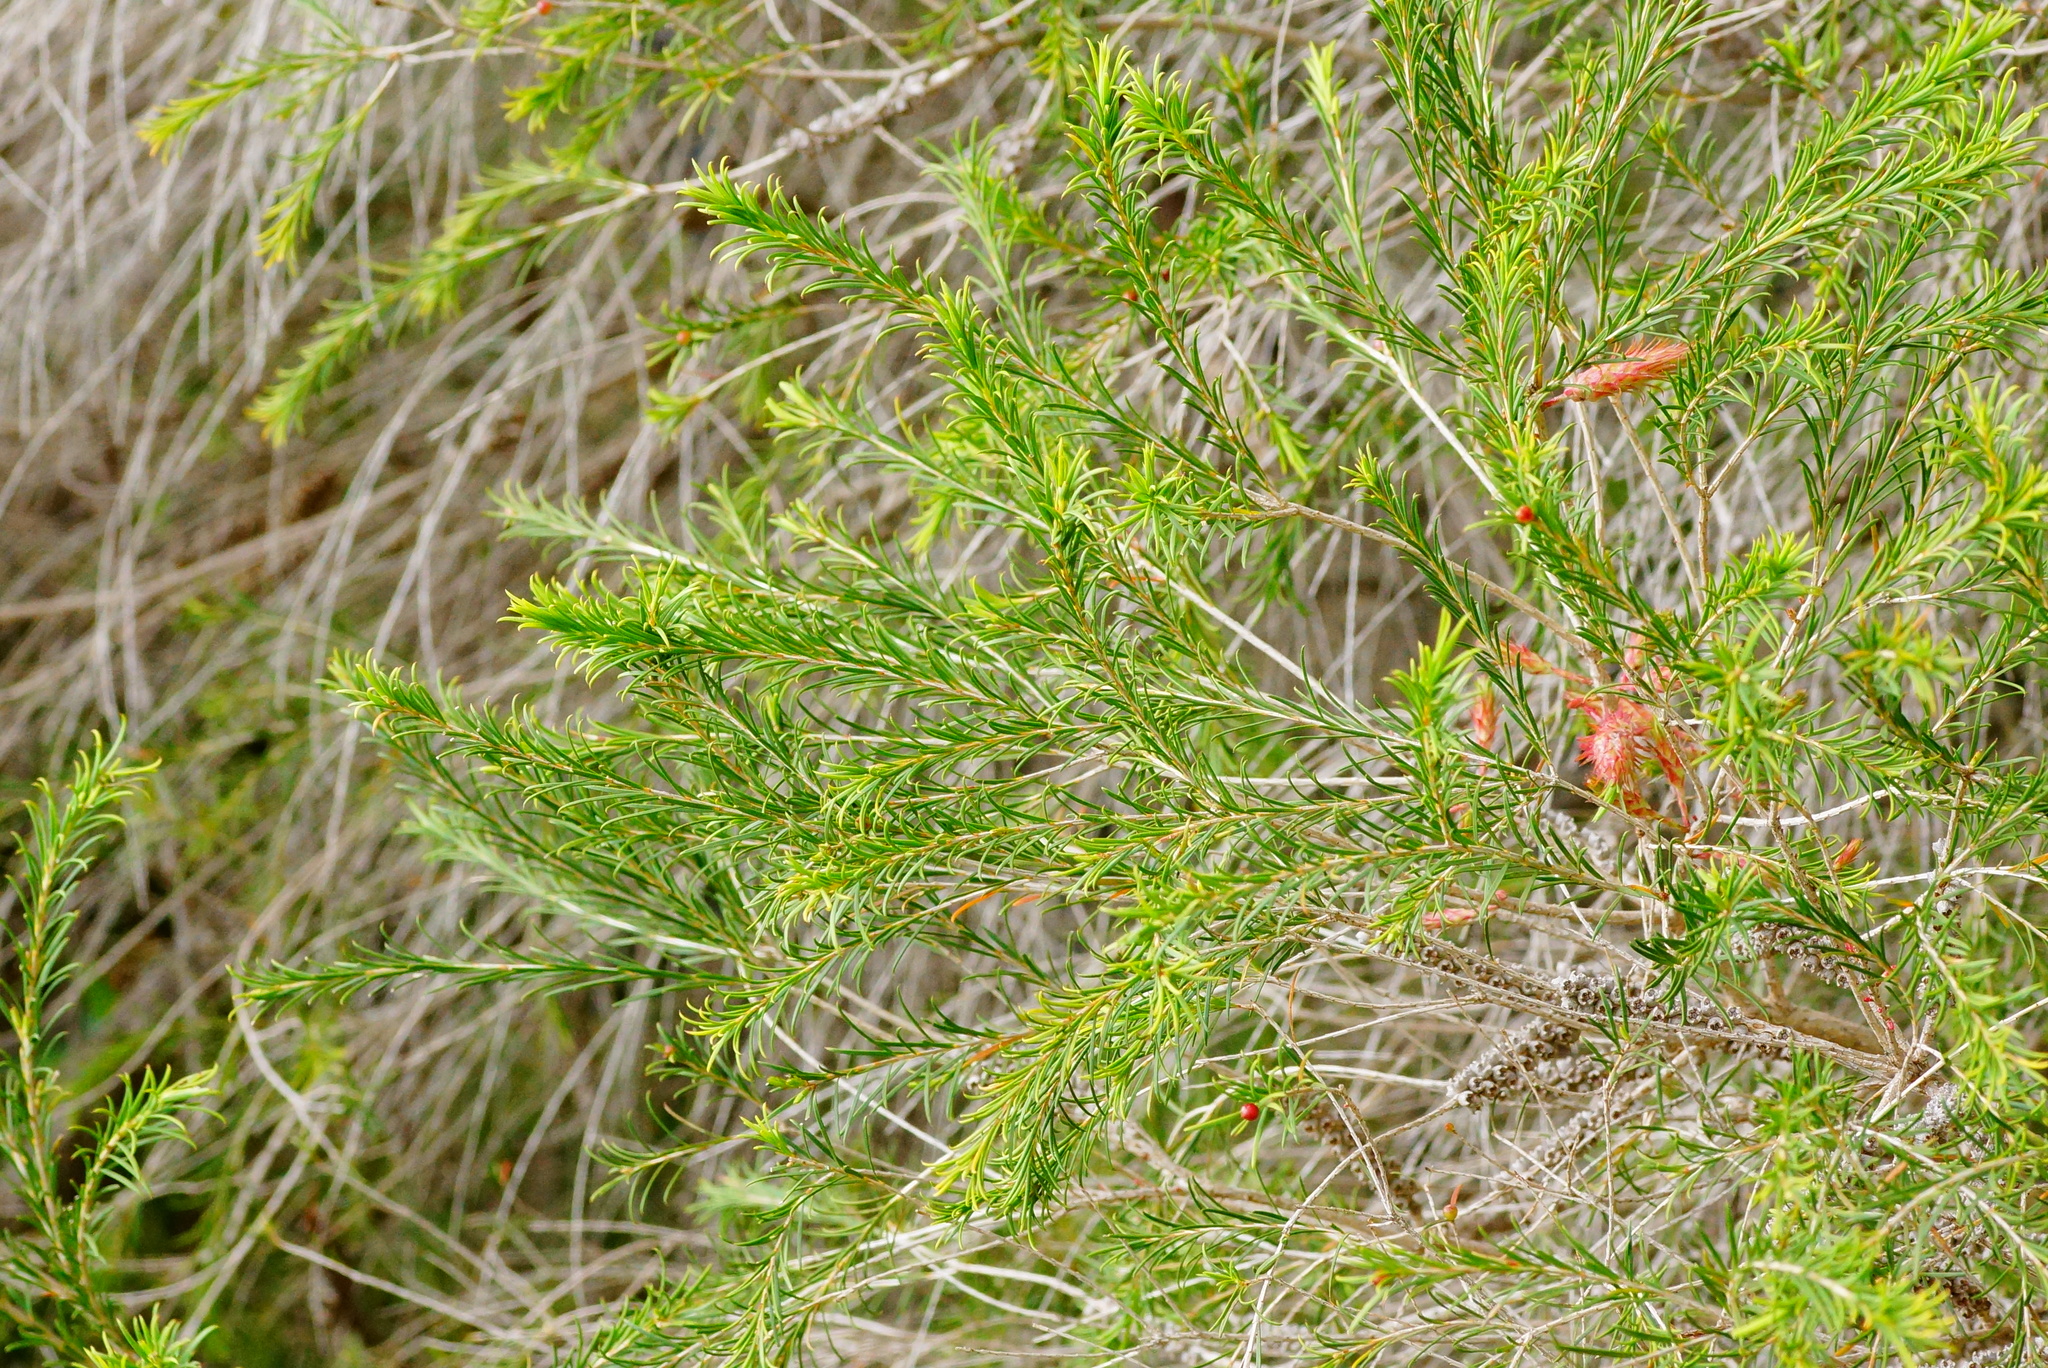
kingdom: Plantae
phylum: Tracheophyta
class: Magnoliopsida
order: Myrtales
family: Myrtaceae
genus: Melaleuca
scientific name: Melaleuca armillaris
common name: Bracelet honey myrtle
